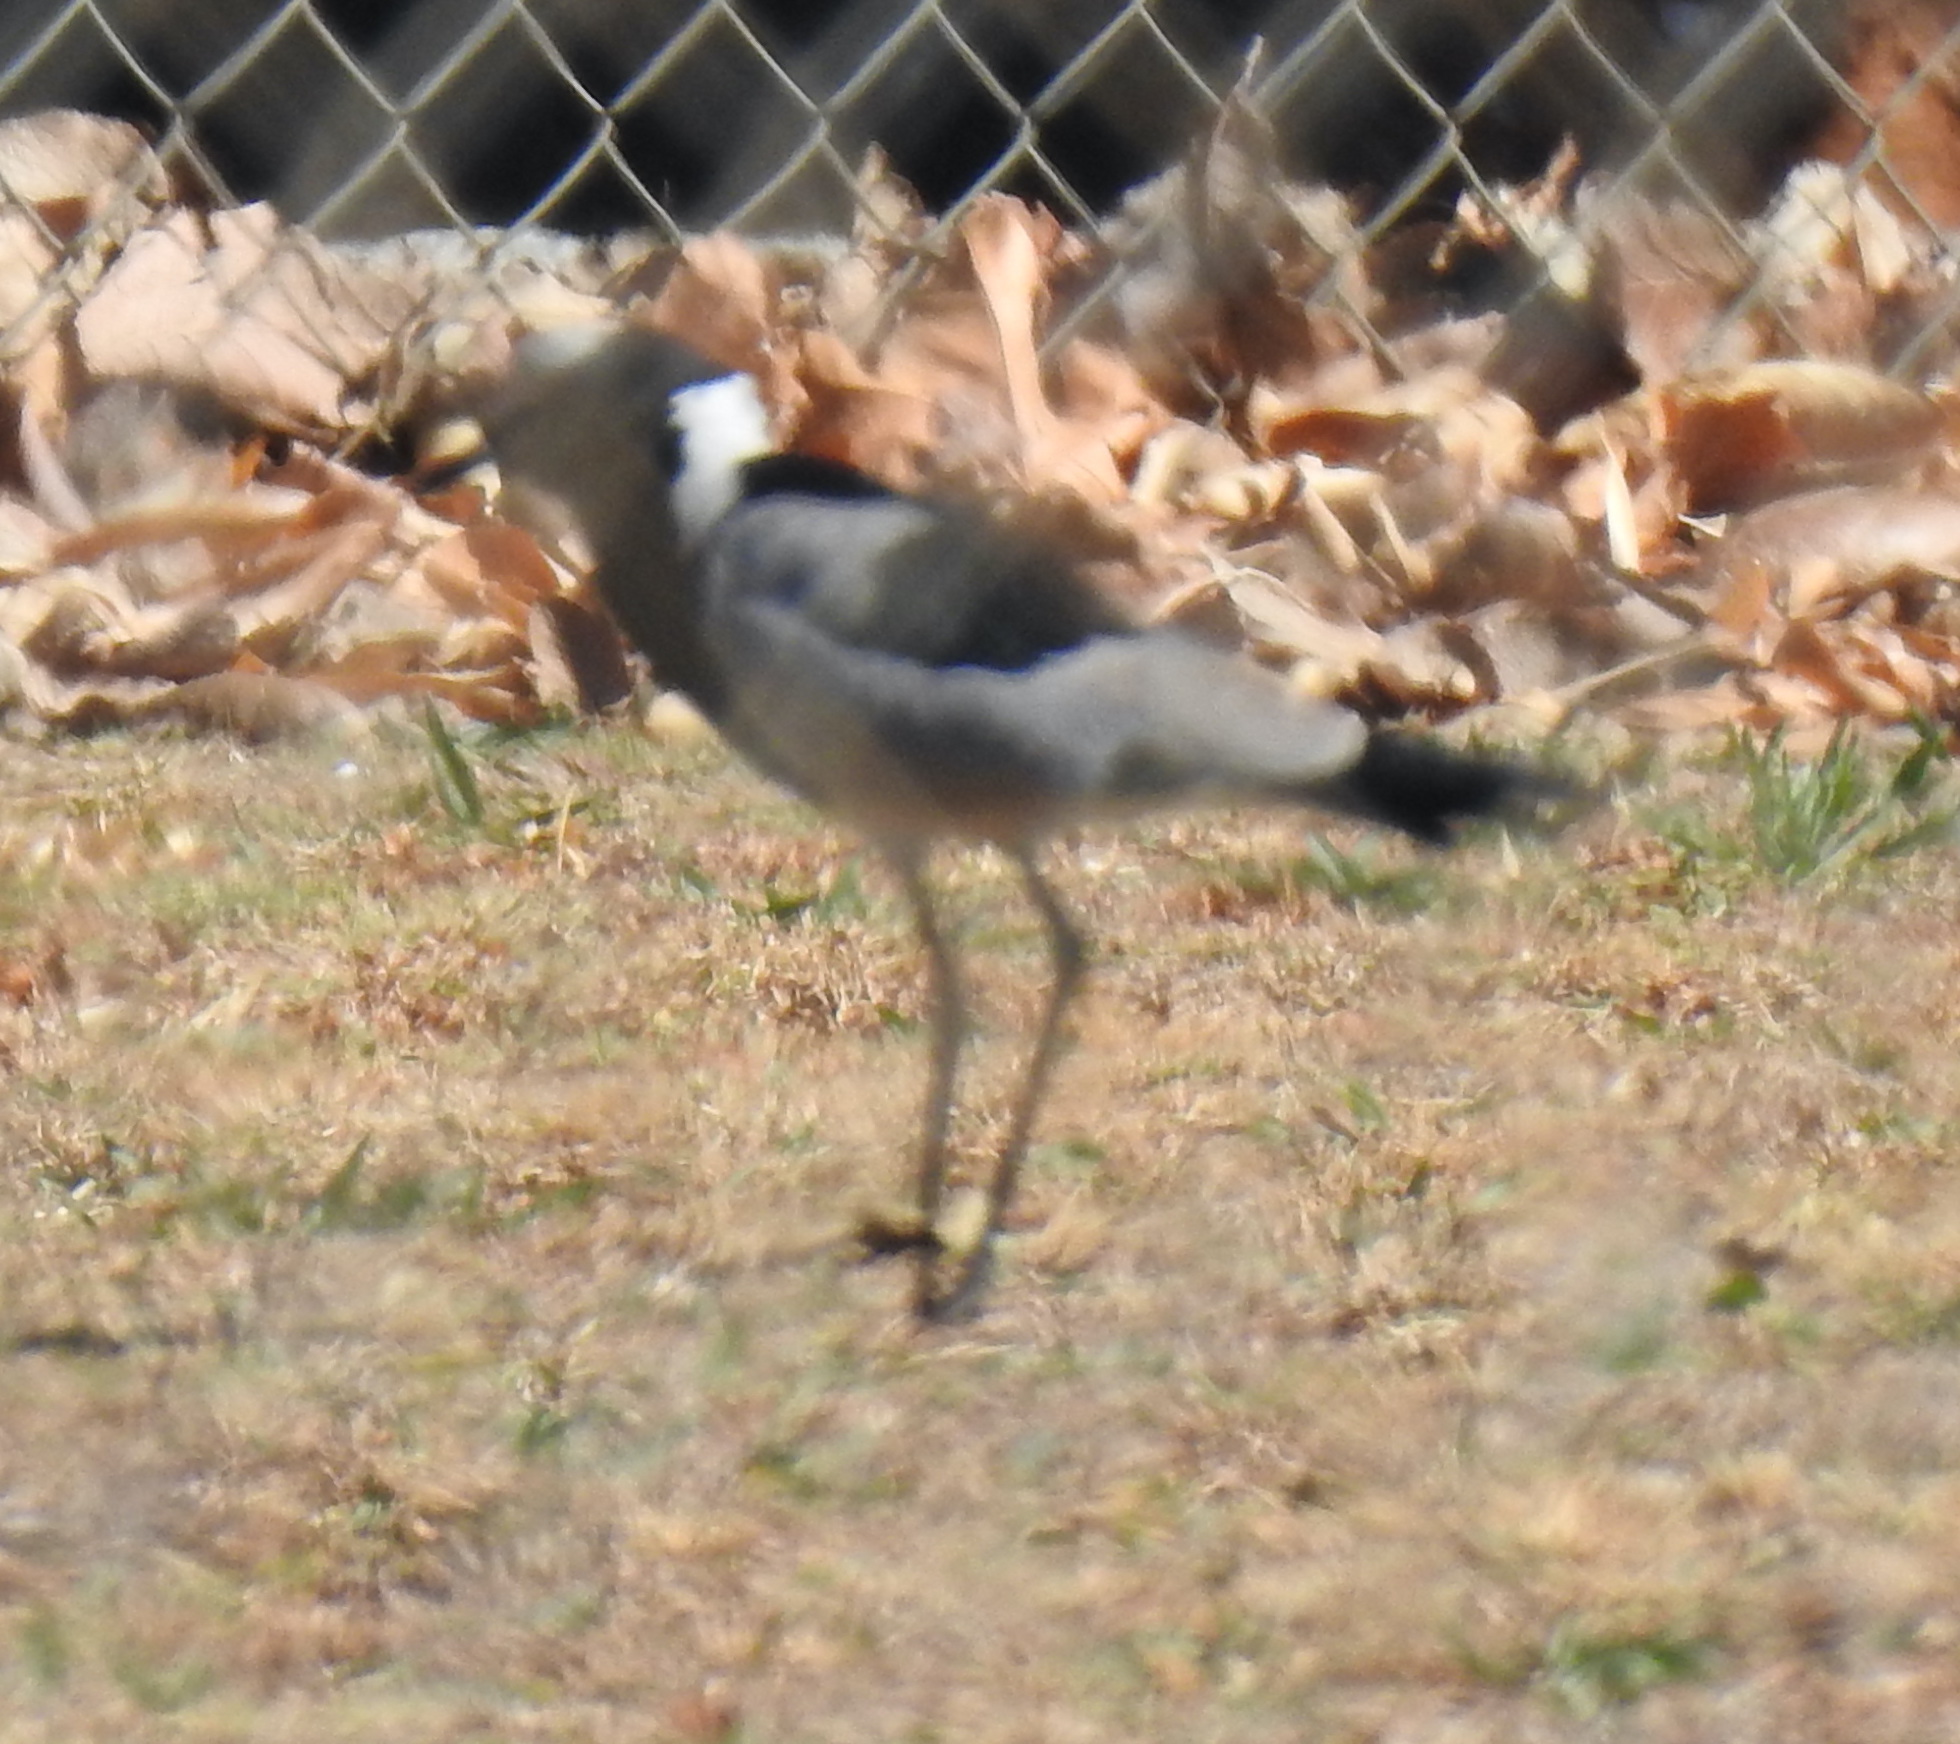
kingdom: Animalia
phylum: Chordata
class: Aves
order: Charadriiformes
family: Charadriidae
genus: Vanellus
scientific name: Vanellus armatus
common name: Blacksmith lapwing
